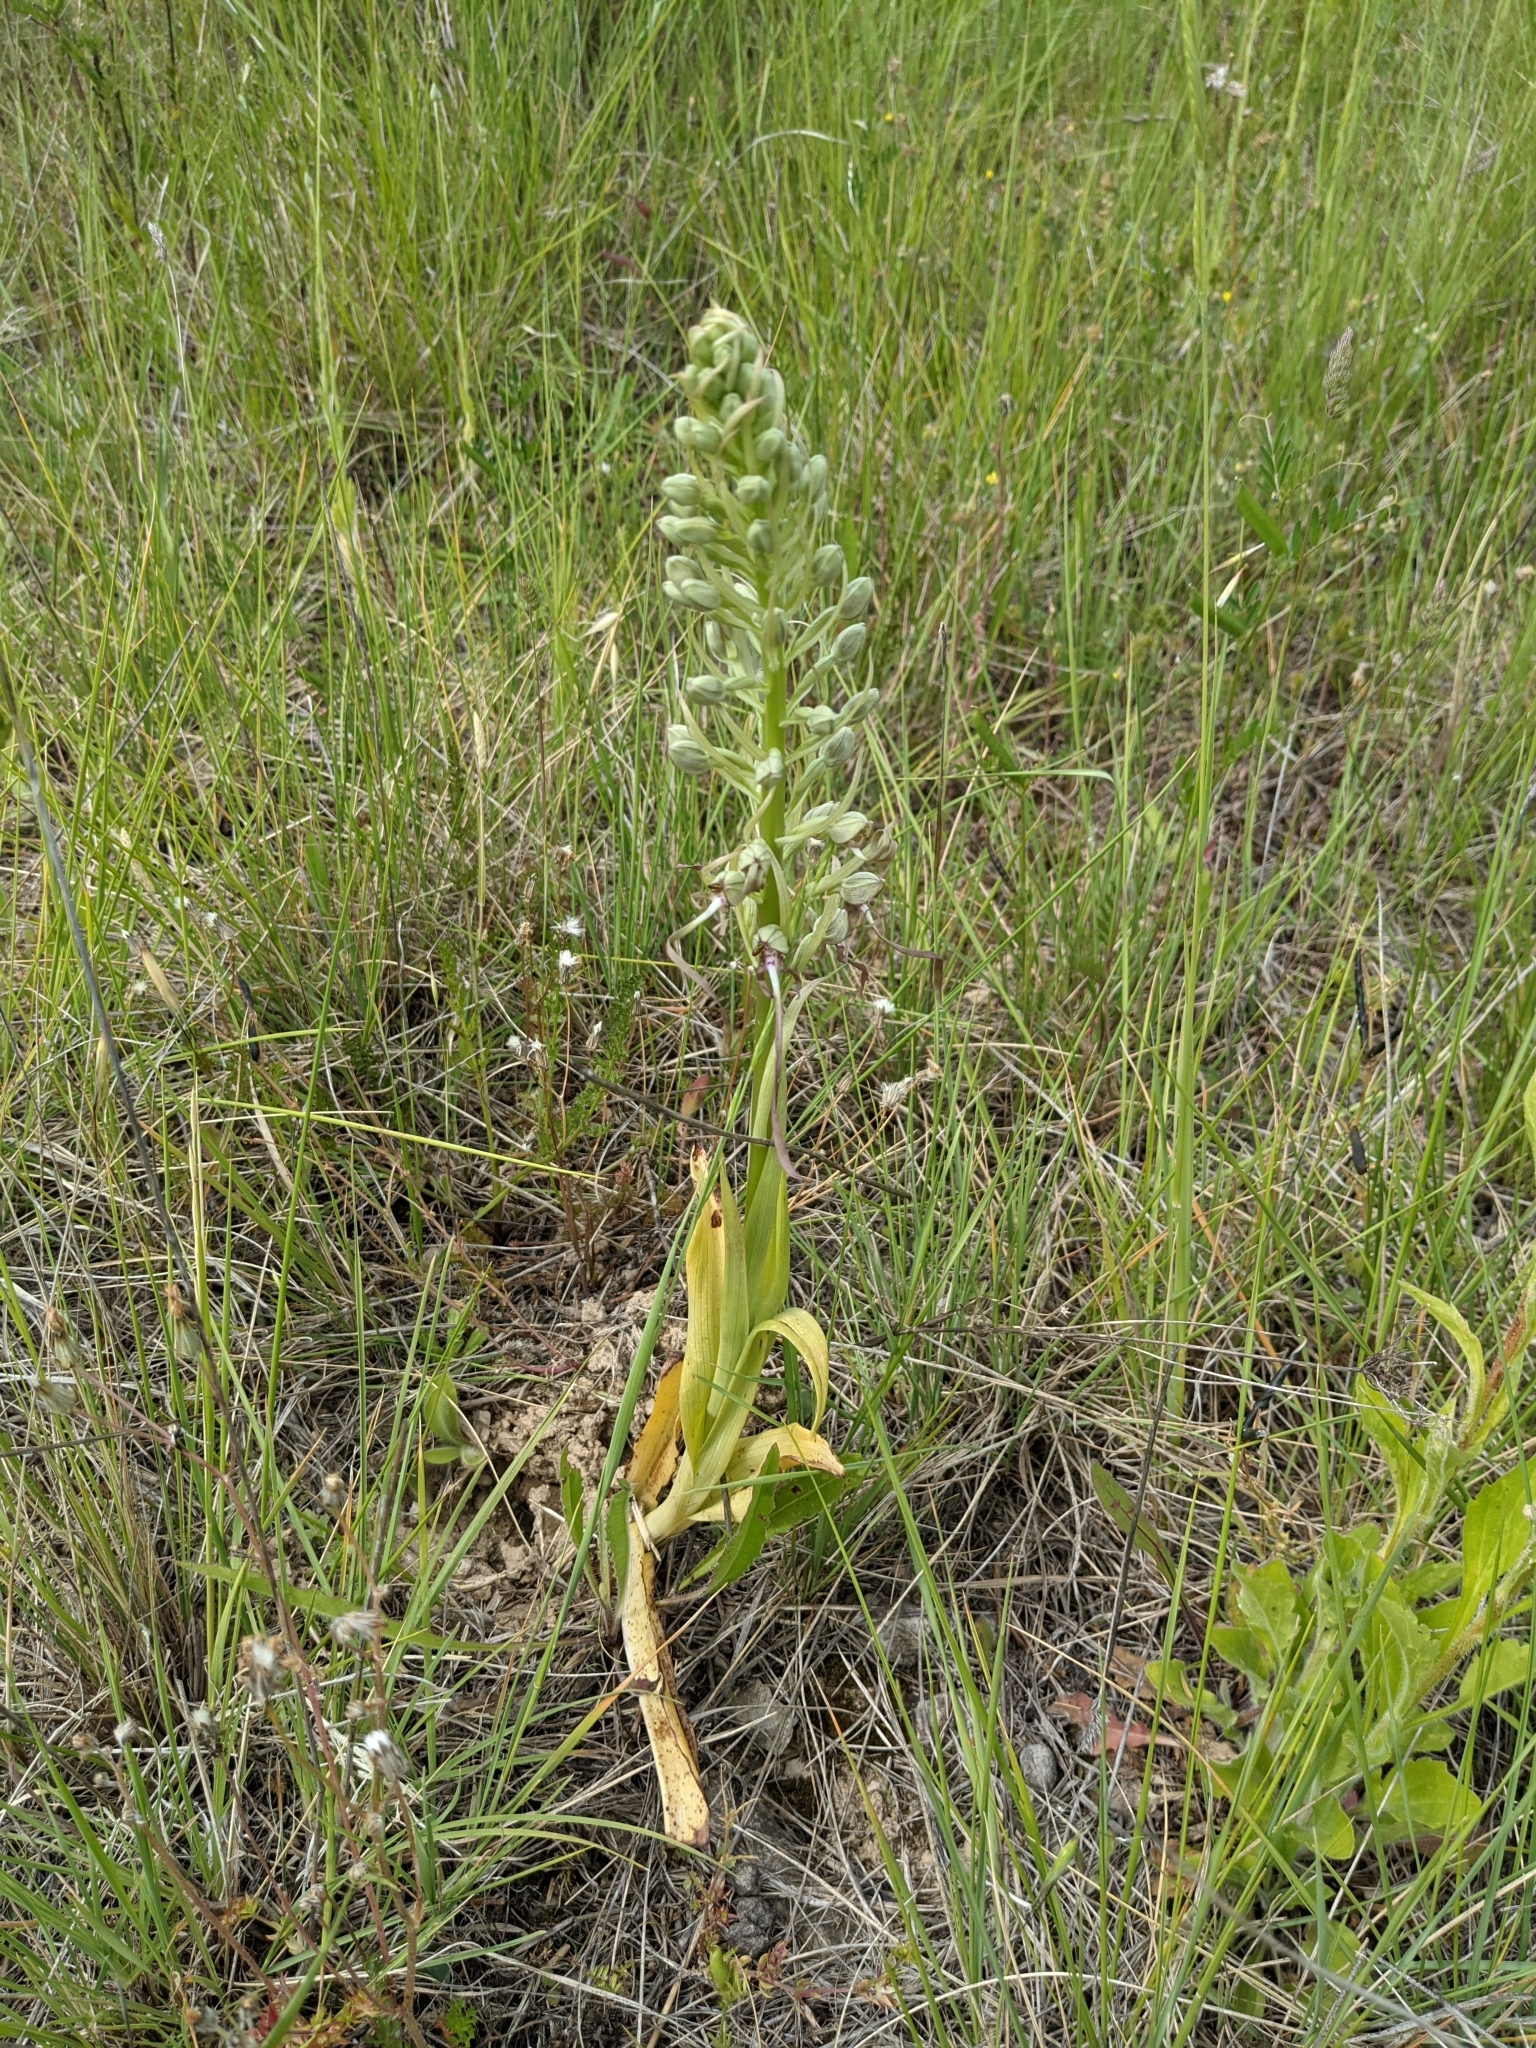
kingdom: Plantae
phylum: Tracheophyta
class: Liliopsida
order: Asparagales
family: Orchidaceae
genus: Himantoglossum
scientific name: Himantoglossum hircinum
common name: Lizard orchid
